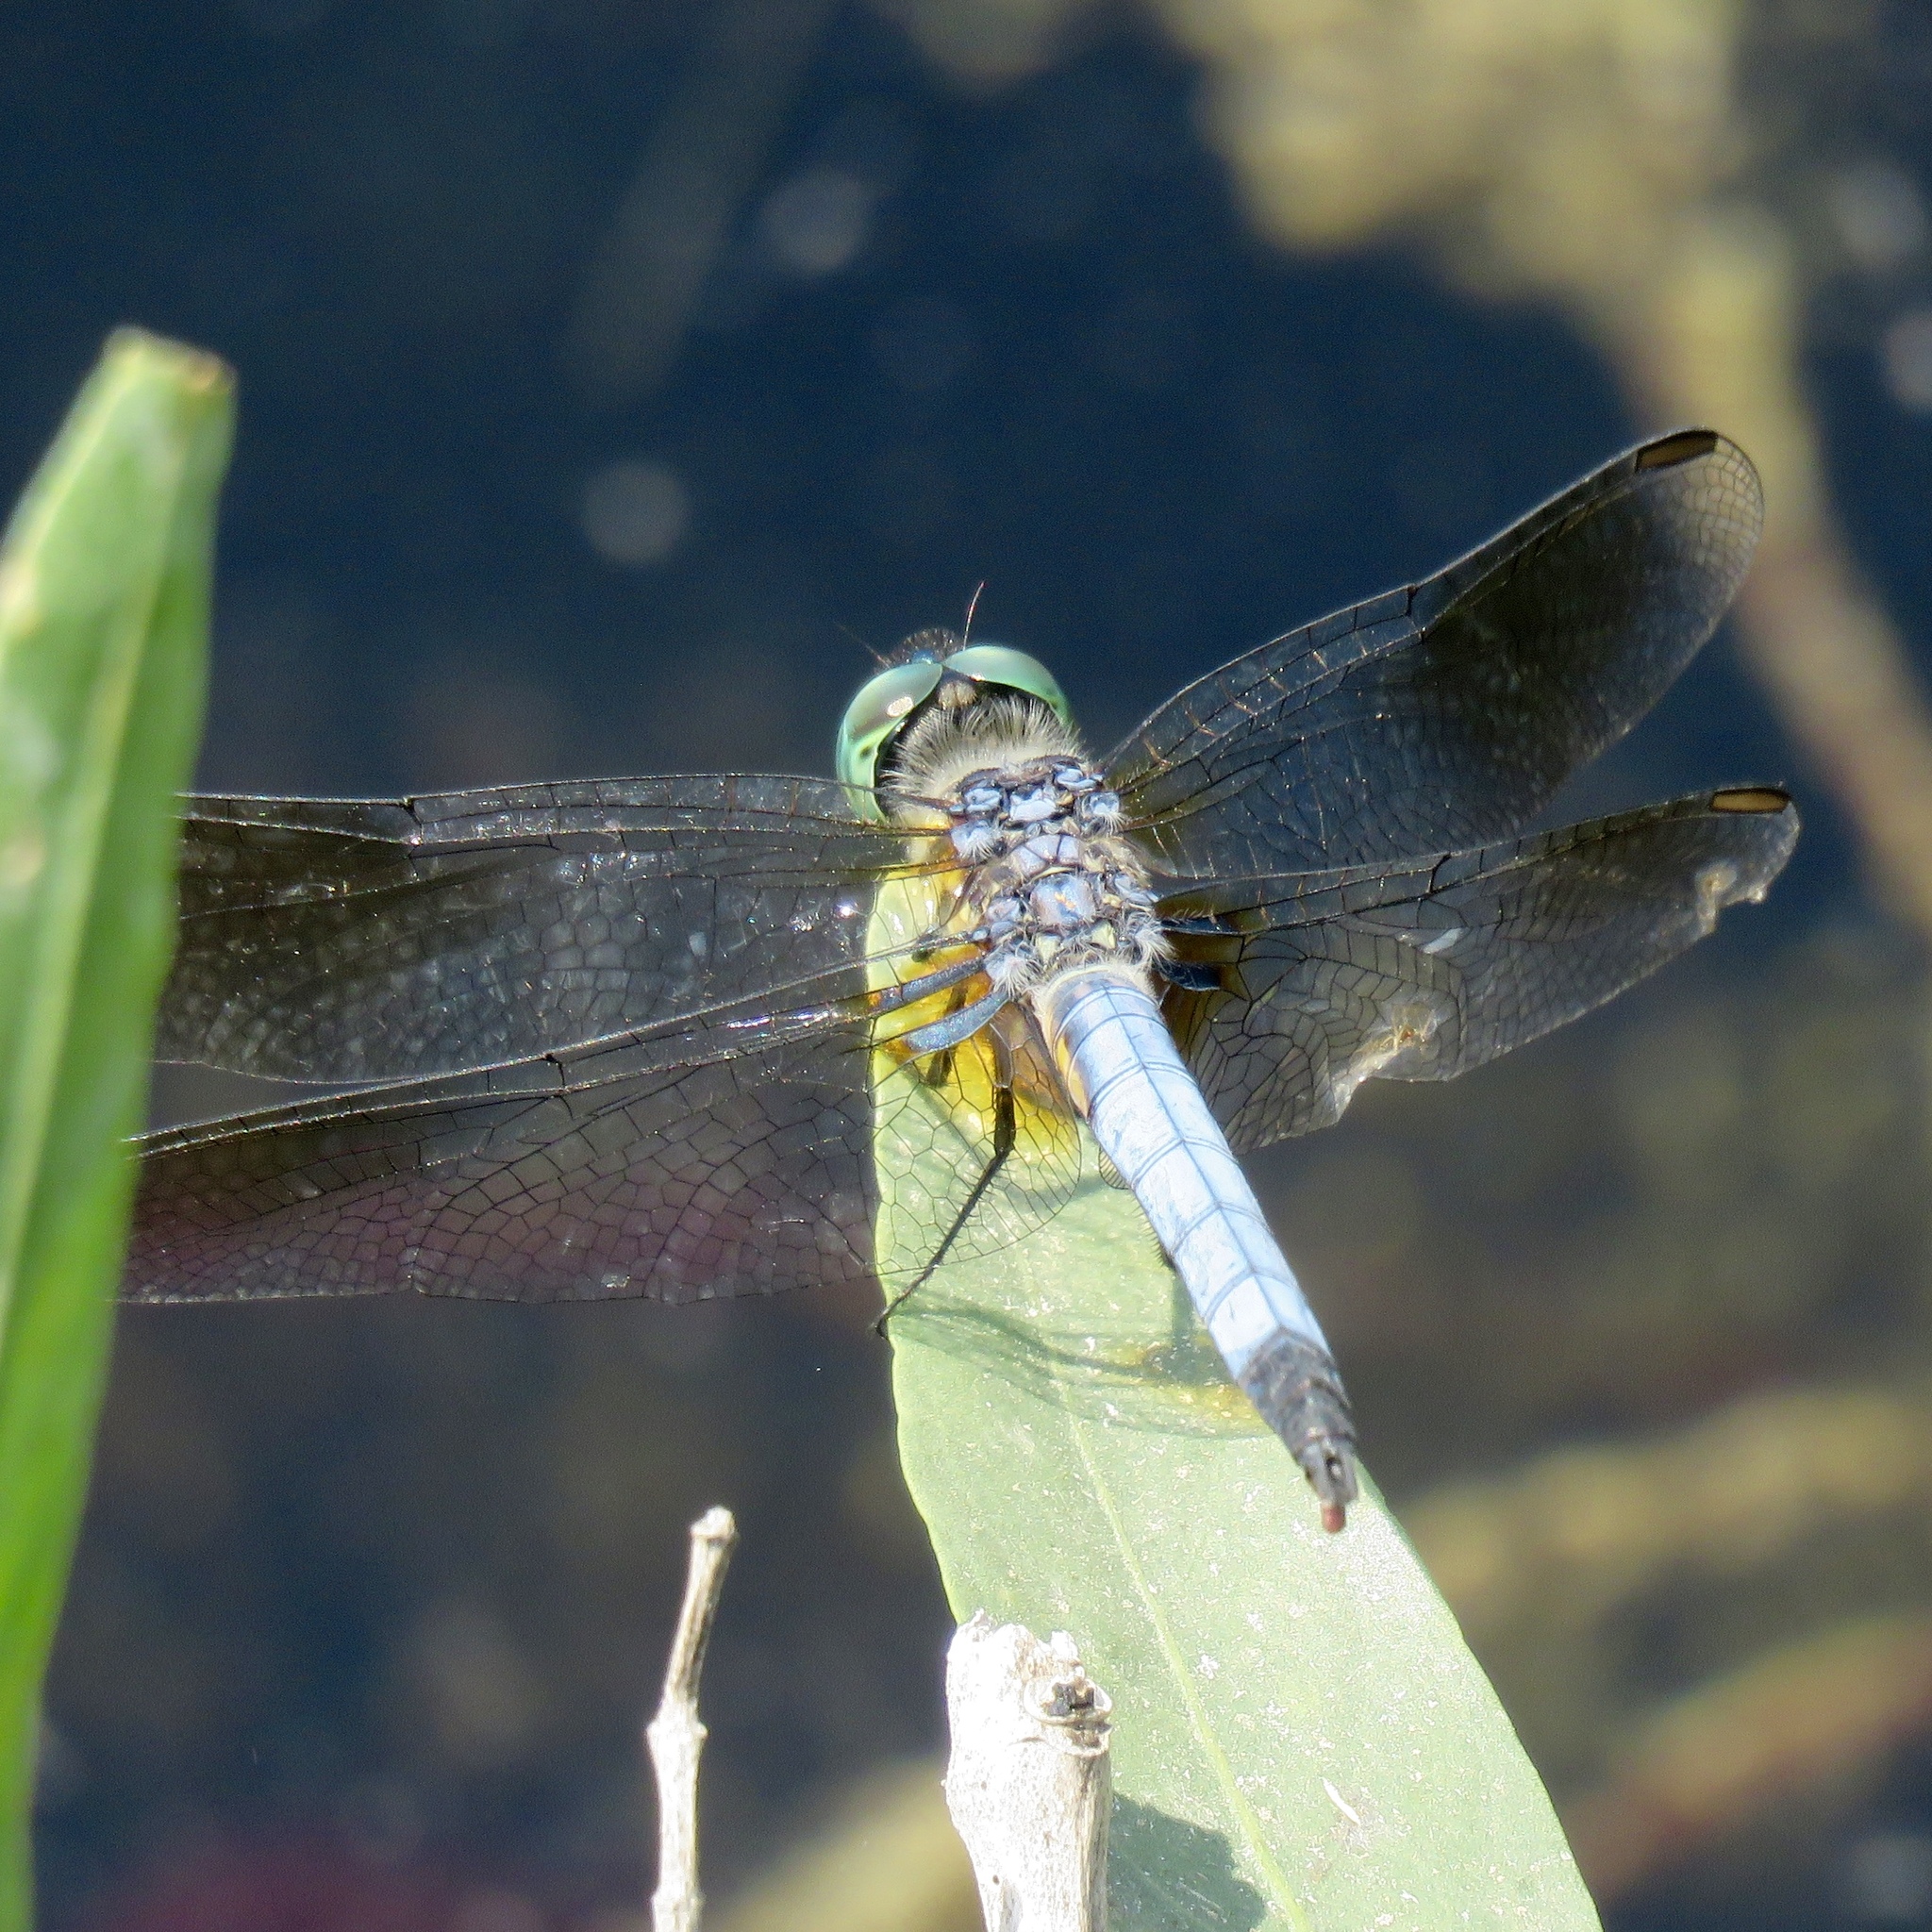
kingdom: Animalia
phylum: Arthropoda
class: Insecta
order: Odonata
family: Libellulidae
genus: Pachydiplax
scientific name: Pachydiplax longipennis
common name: Blue dasher
